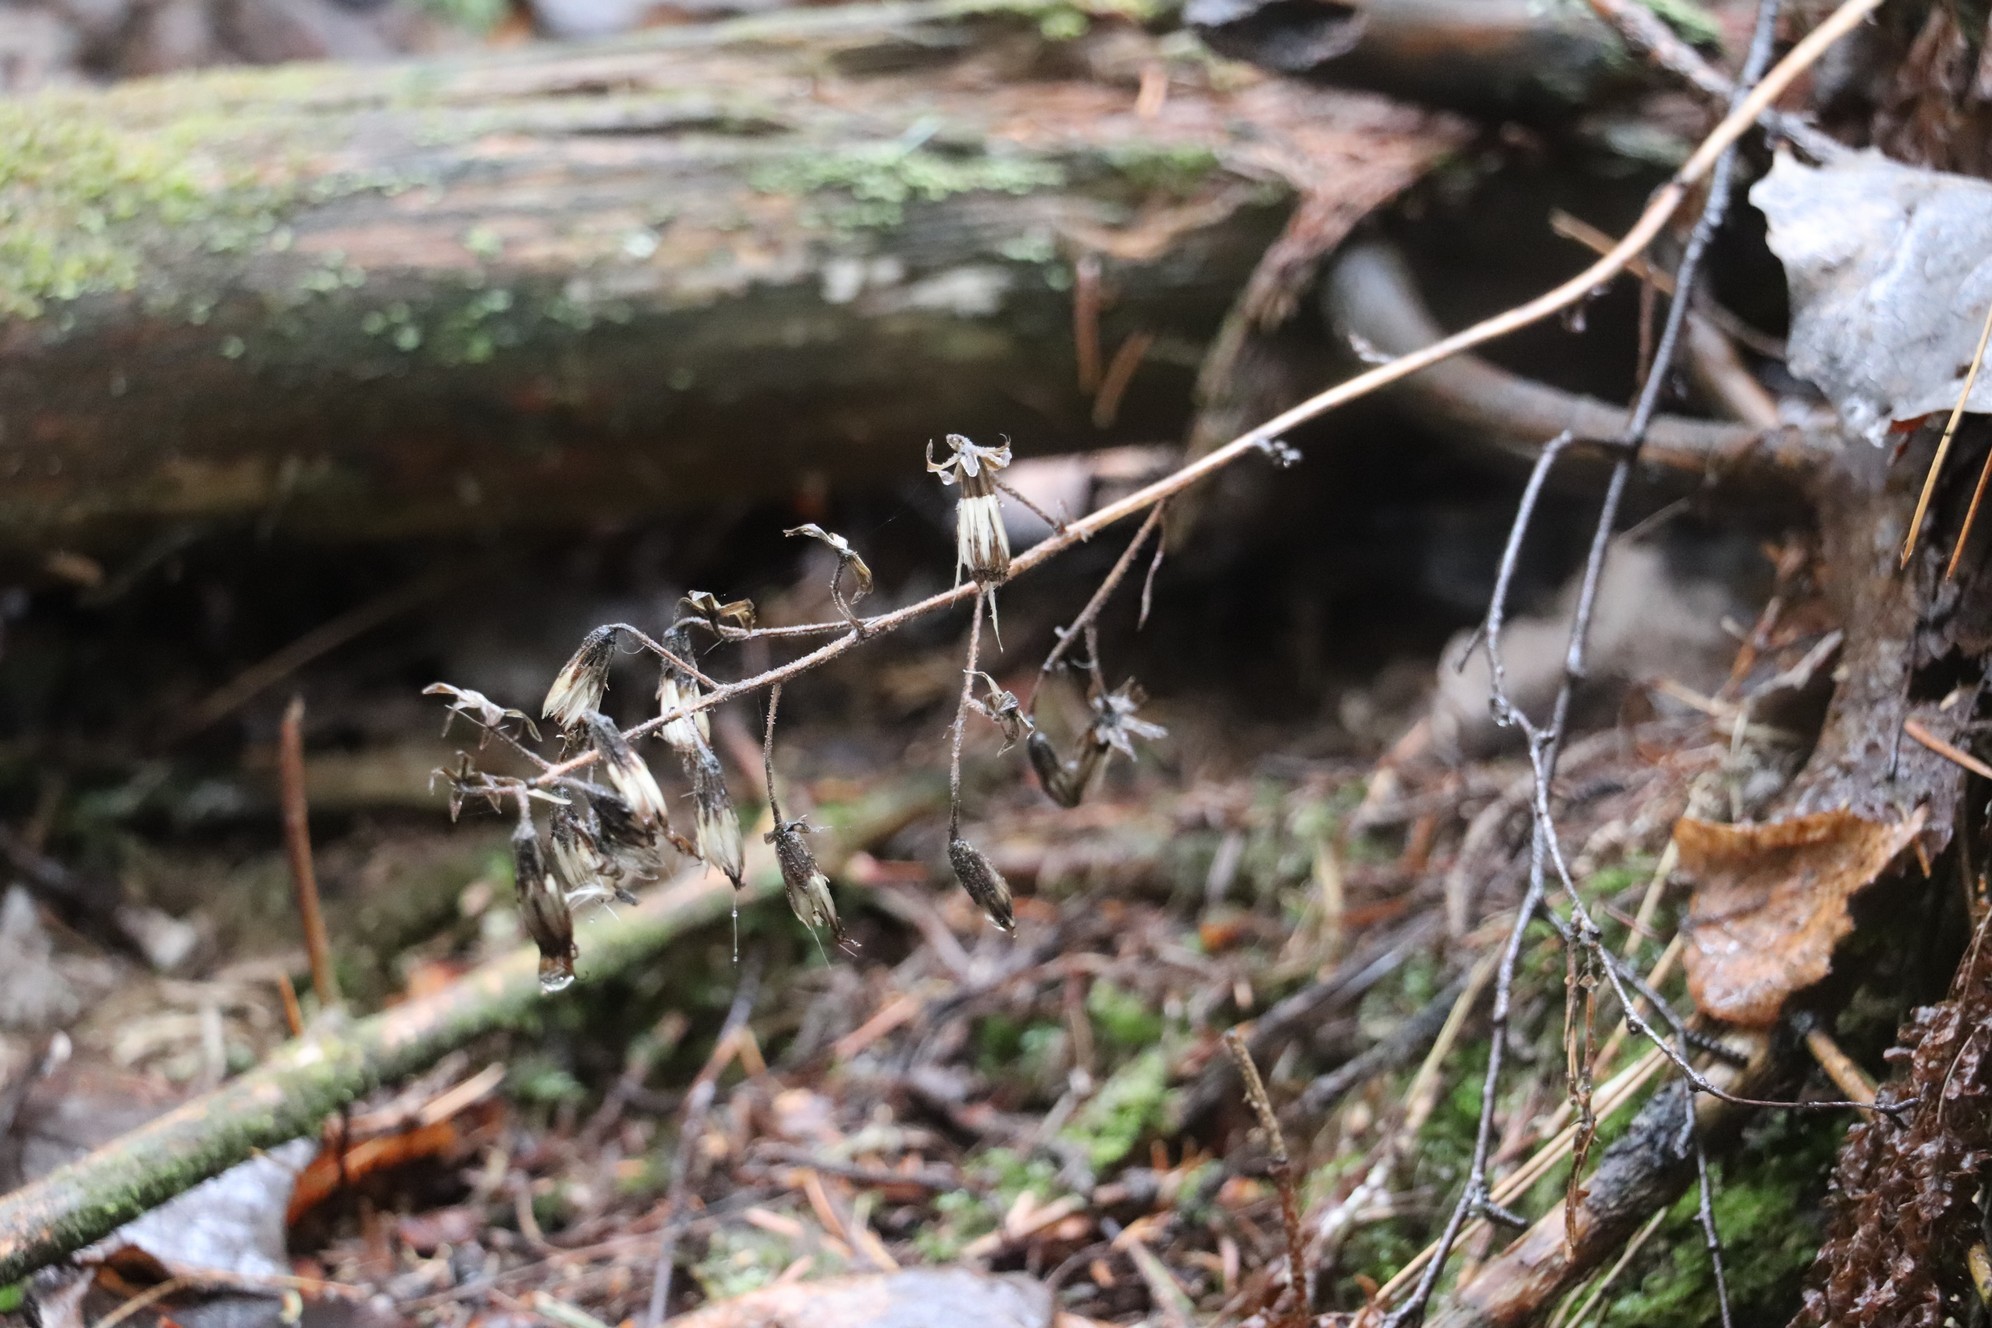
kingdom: Plantae
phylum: Tracheophyta
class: Magnoliopsida
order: Asterales
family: Asteraceae
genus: Parasenecio
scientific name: Parasenecio hastatus
